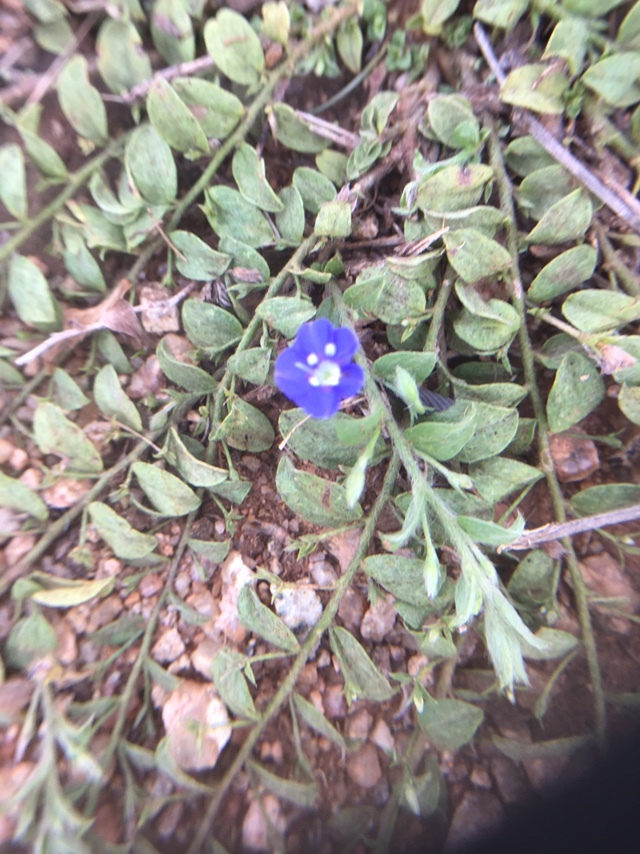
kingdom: Plantae
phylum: Tracheophyta
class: Magnoliopsida
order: Solanales
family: Convolvulaceae
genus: Evolvulus
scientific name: Evolvulus alsinoides
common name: Slender dwarf morning-glory
